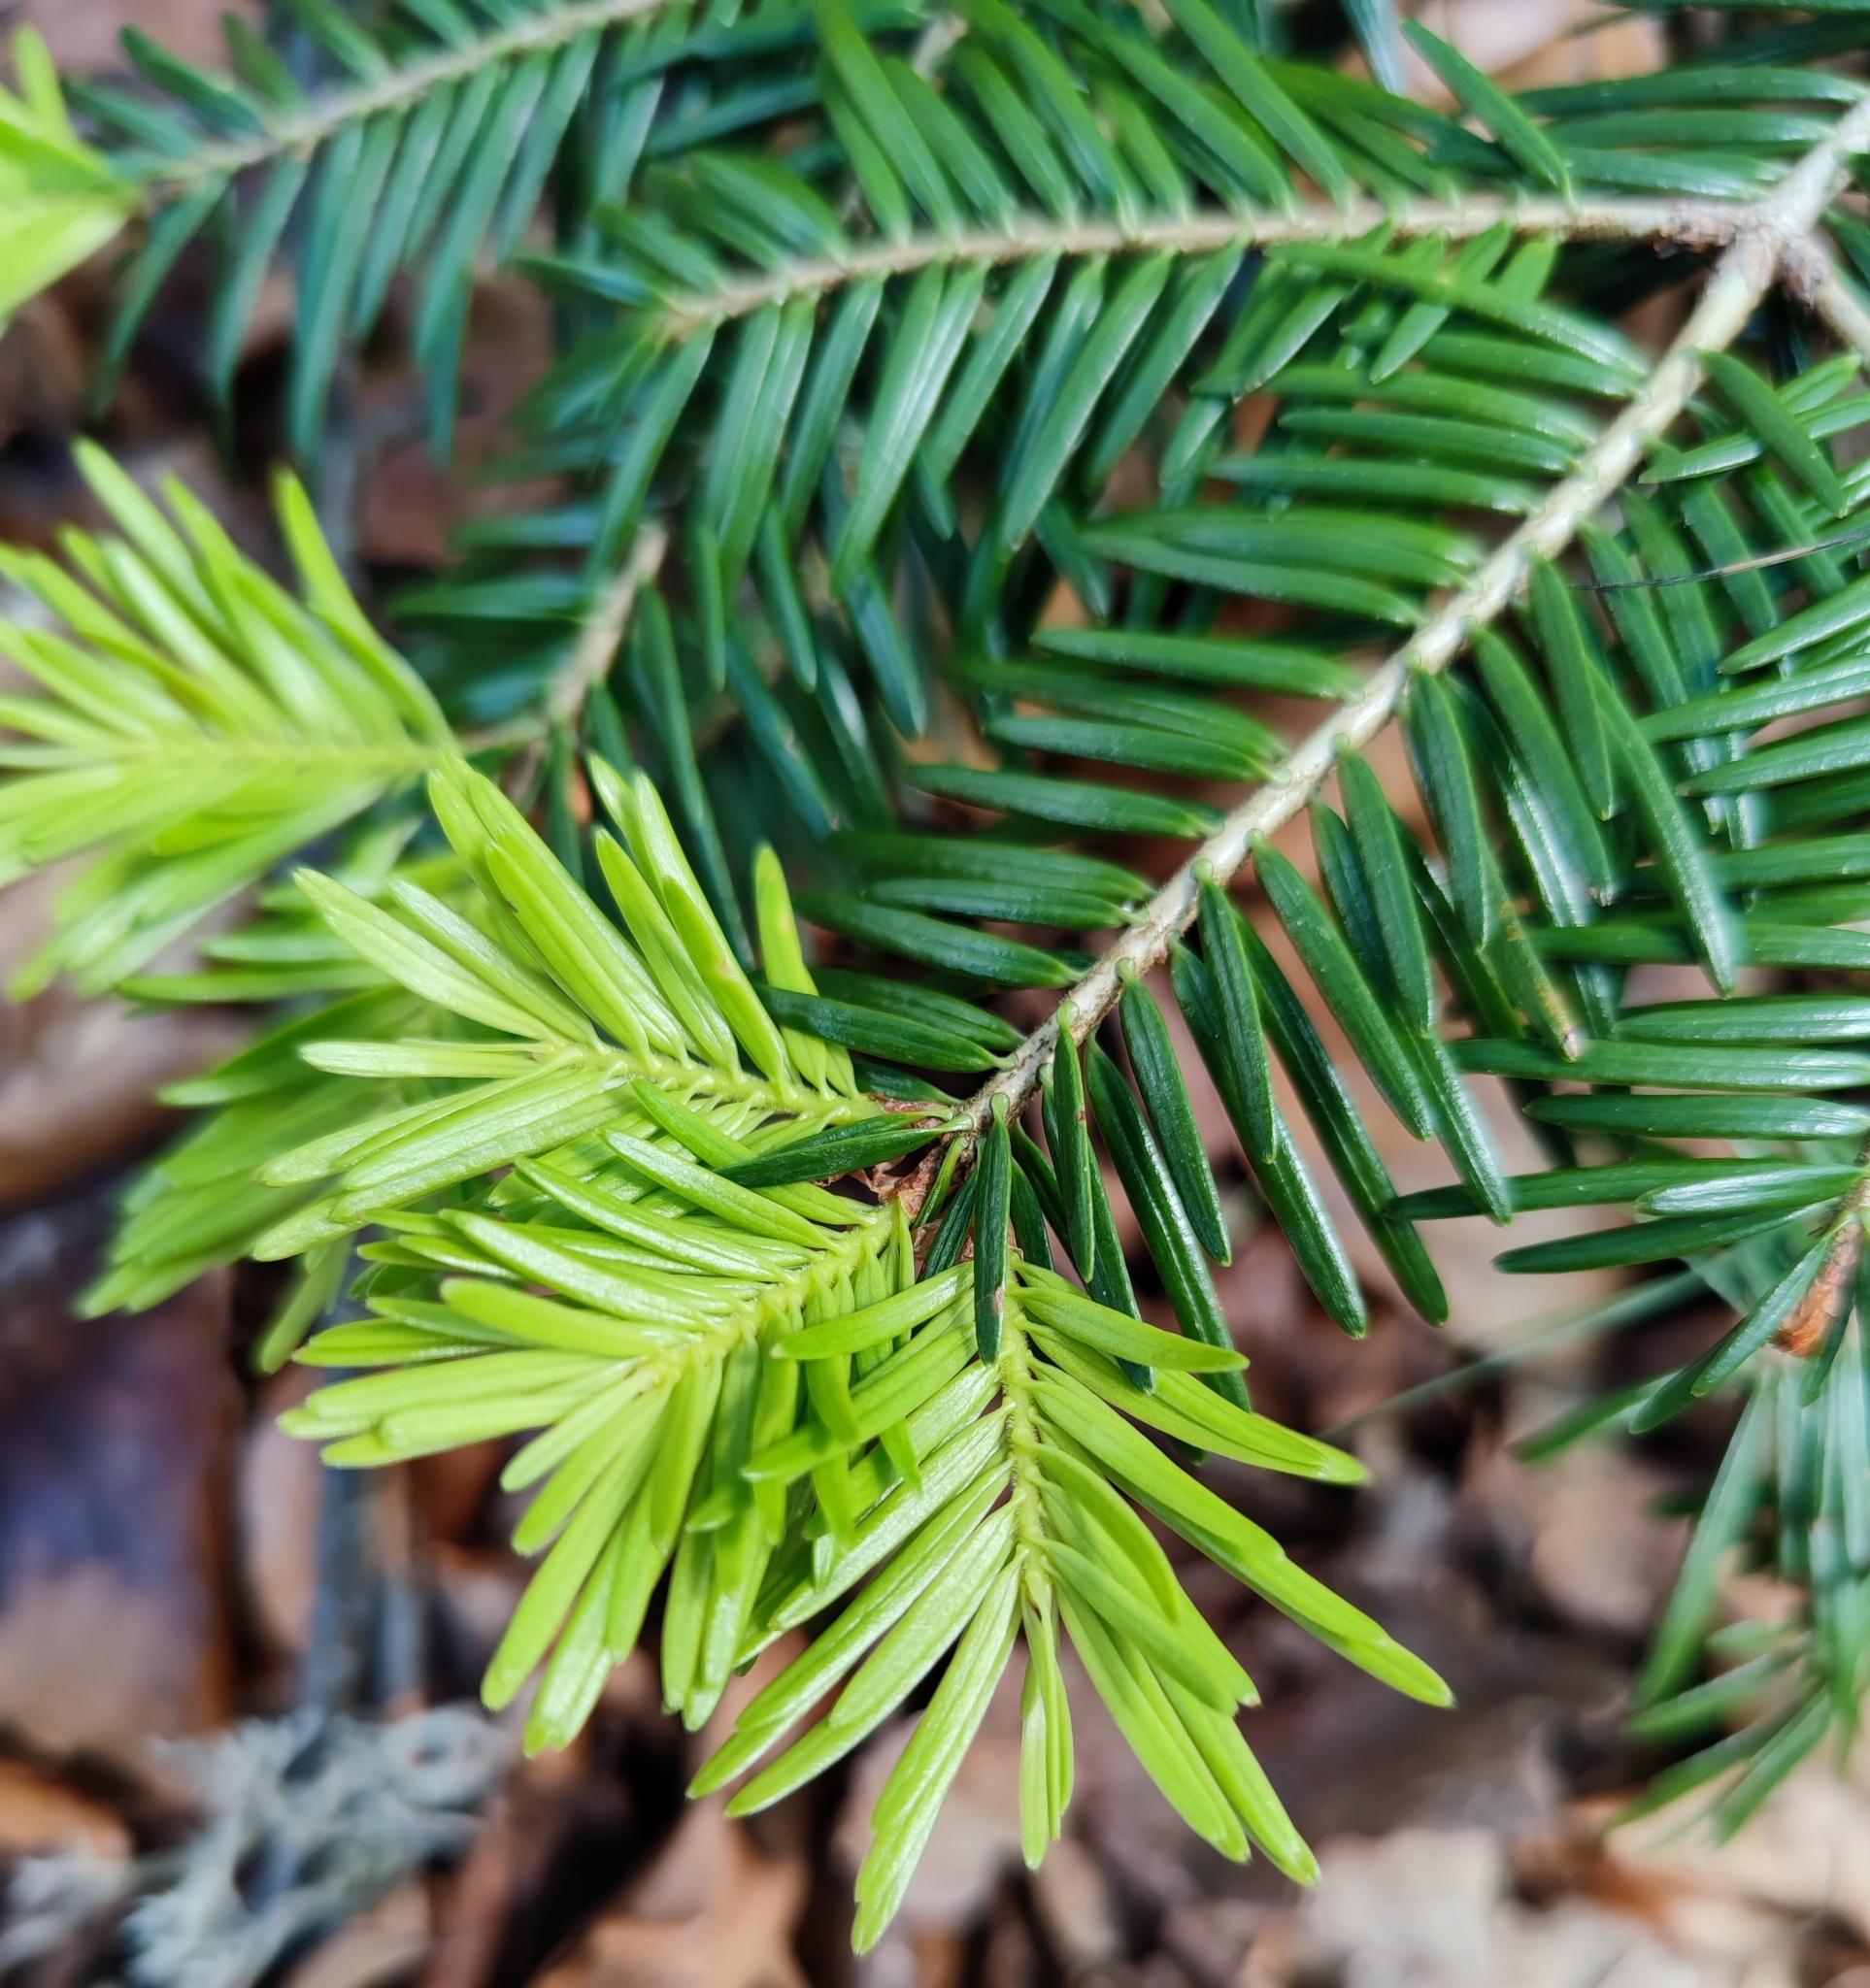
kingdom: Plantae
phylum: Tracheophyta
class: Pinopsida
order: Pinales
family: Pinaceae
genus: Abies
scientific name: Abies alba
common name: Silver fir
